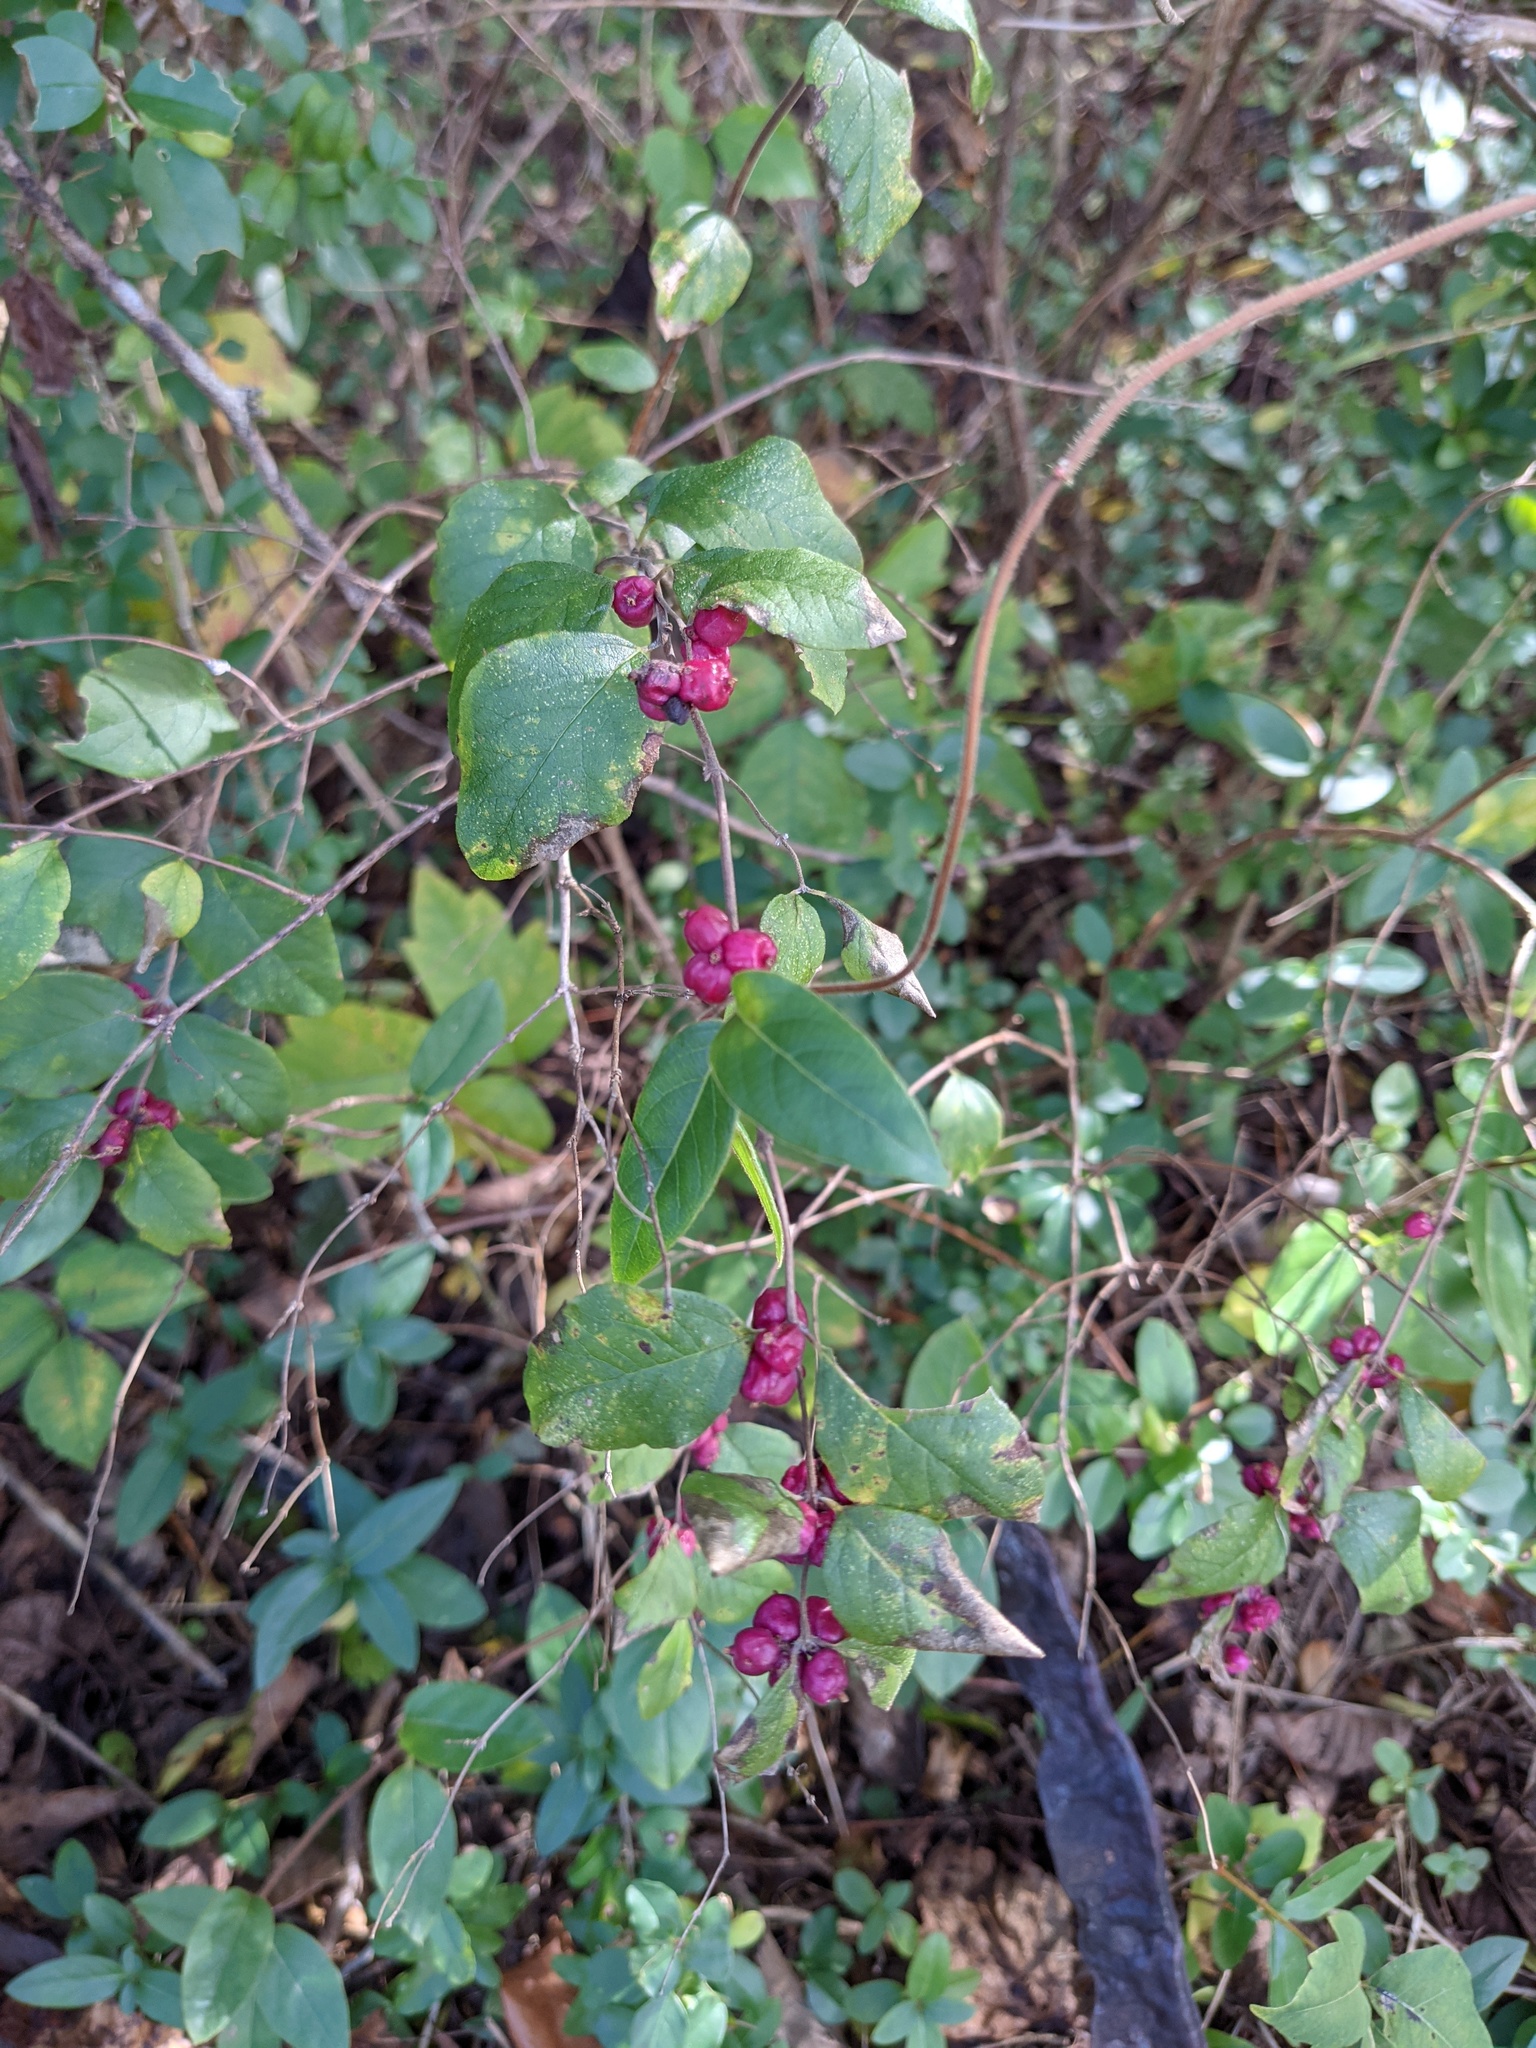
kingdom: Plantae
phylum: Tracheophyta
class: Magnoliopsida
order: Dipsacales
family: Caprifoliaceae
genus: Symphoricarpos
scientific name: Symphoricarpos orbiculatus
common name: Coralberry
